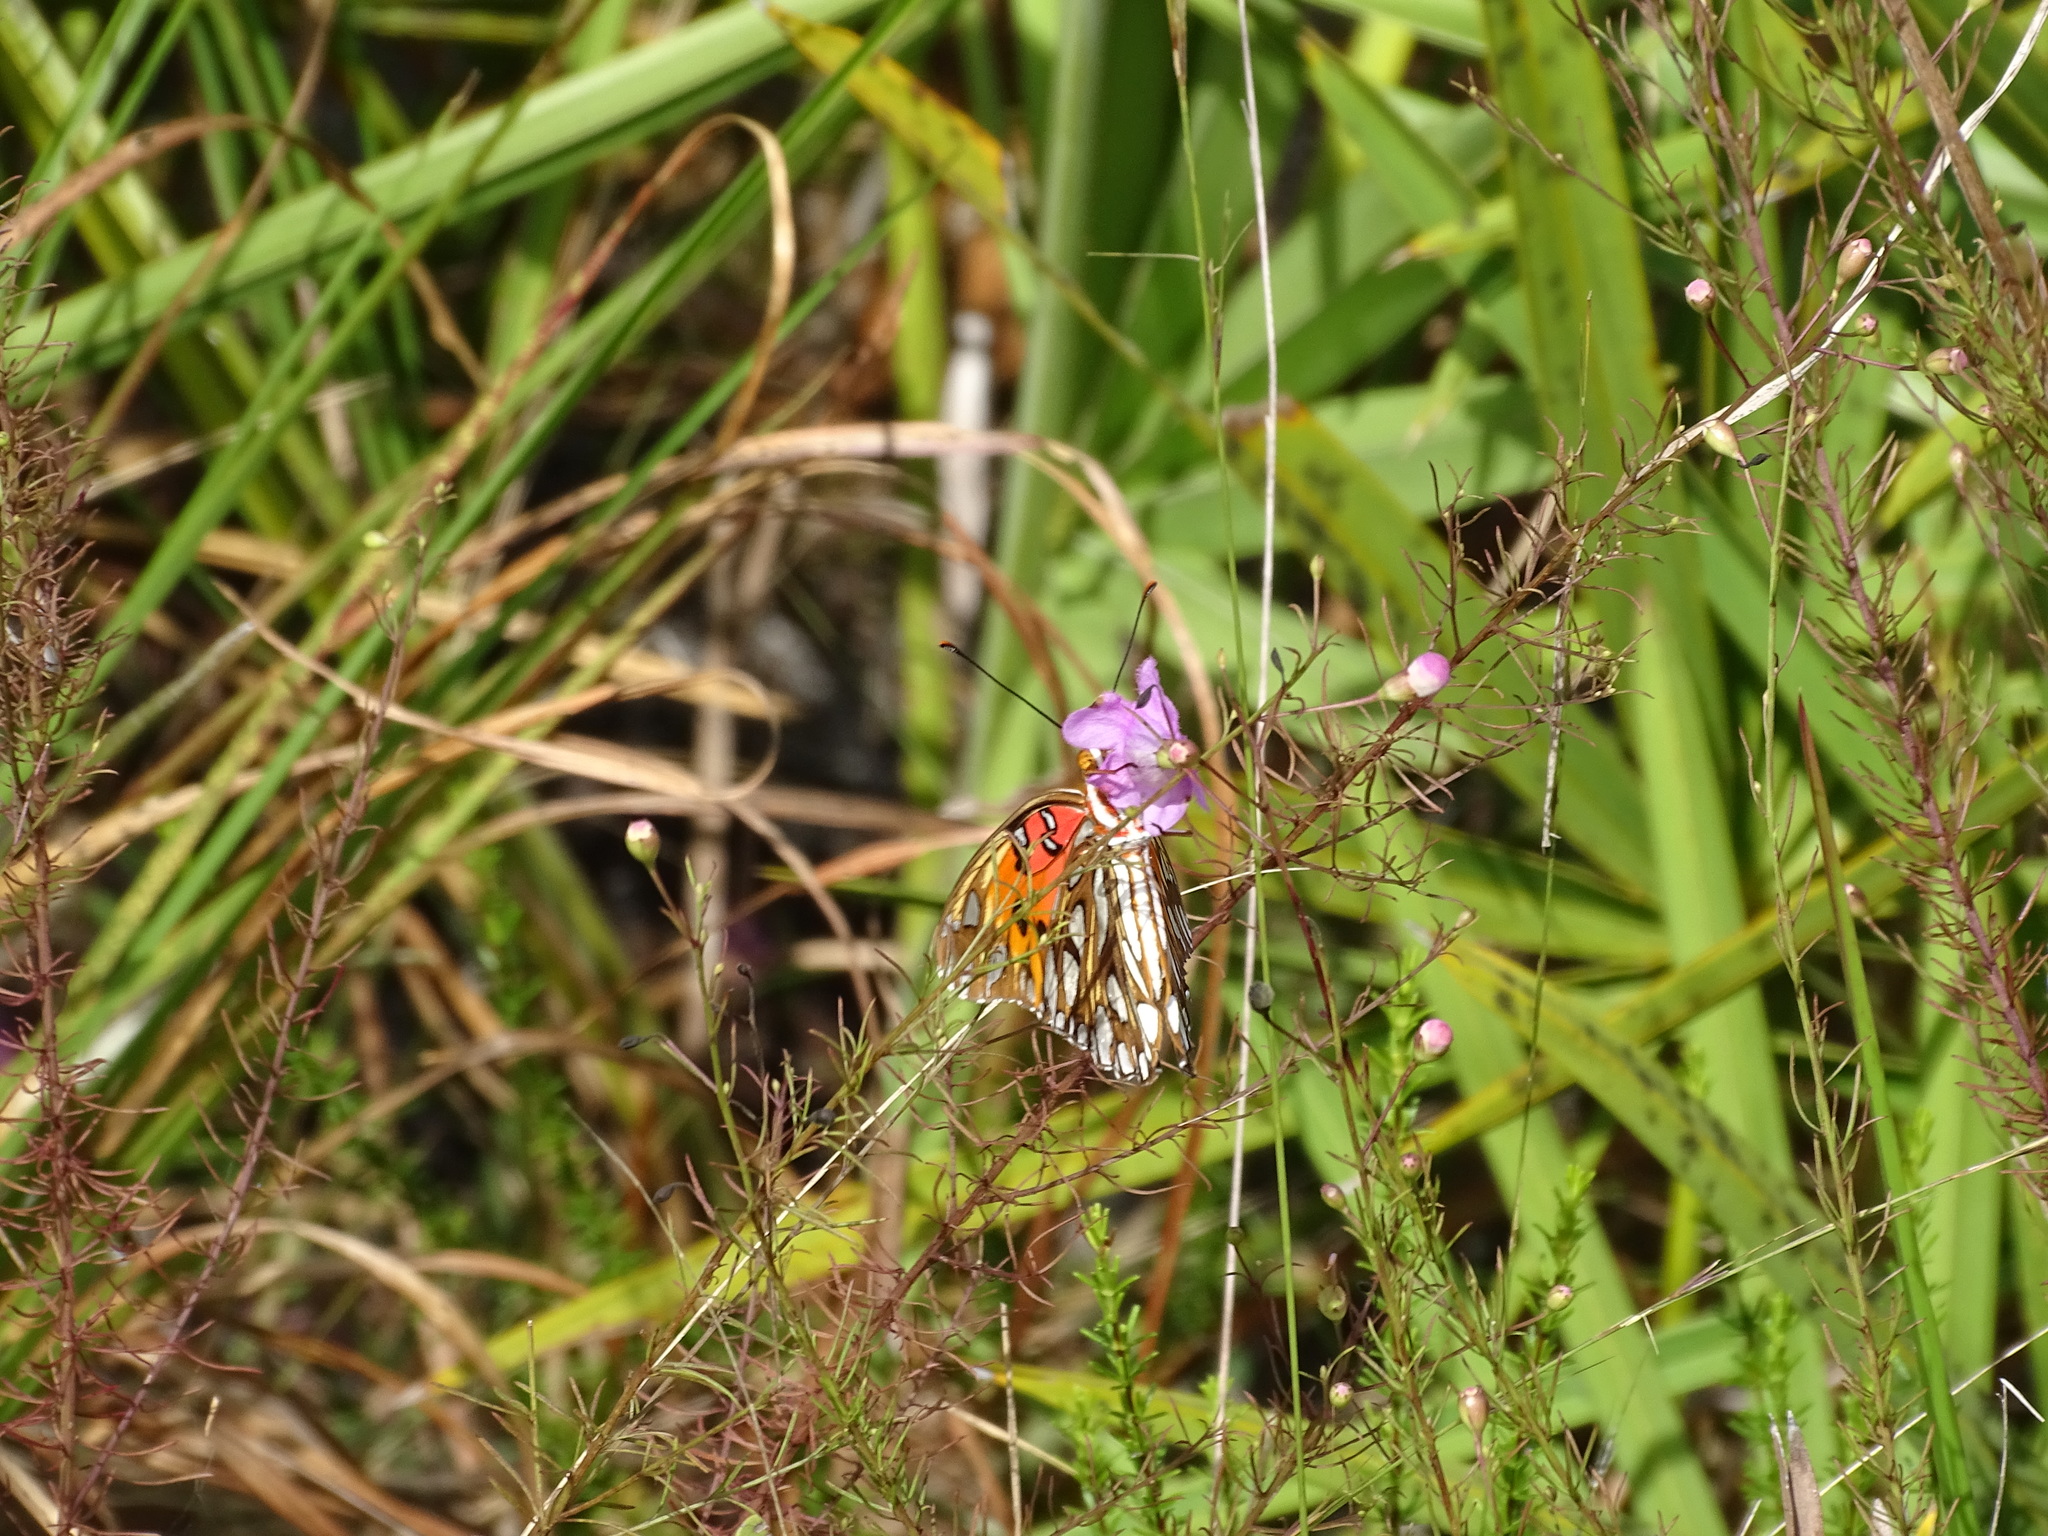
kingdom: Animalia
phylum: Arthropoda
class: Insecta
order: Lepidoptera
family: Nymphalidae
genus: Dione
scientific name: Dione vanillae
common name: Gulf fritillary
